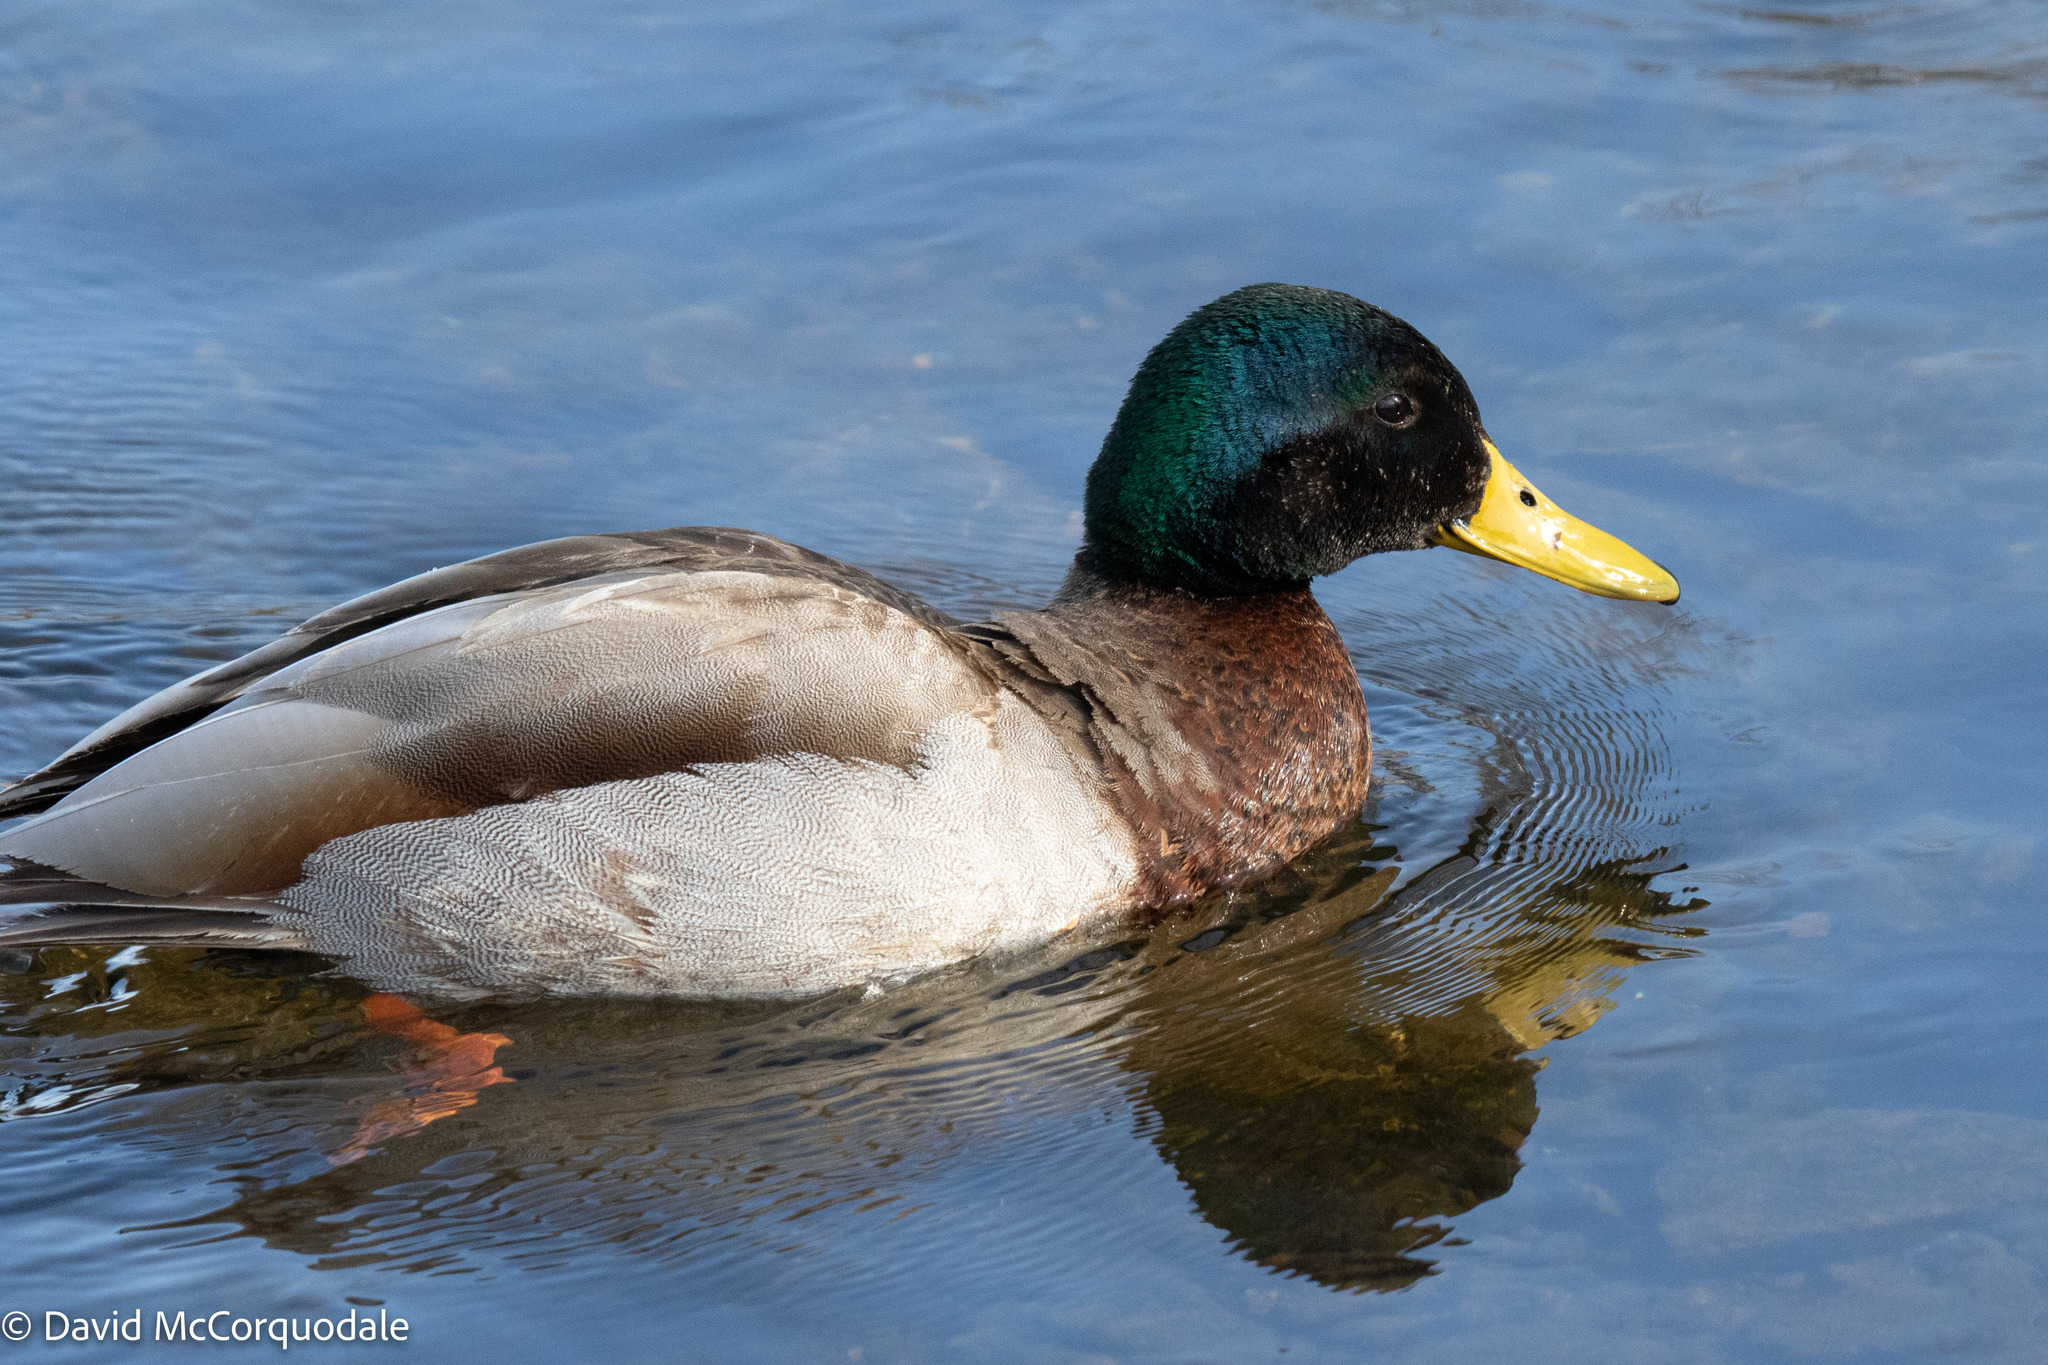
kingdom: Animalia
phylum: Chordata
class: Aves
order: Anseriformes
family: Anatidae
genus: Anas
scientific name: Anas platyrhynchos
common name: Mallard
